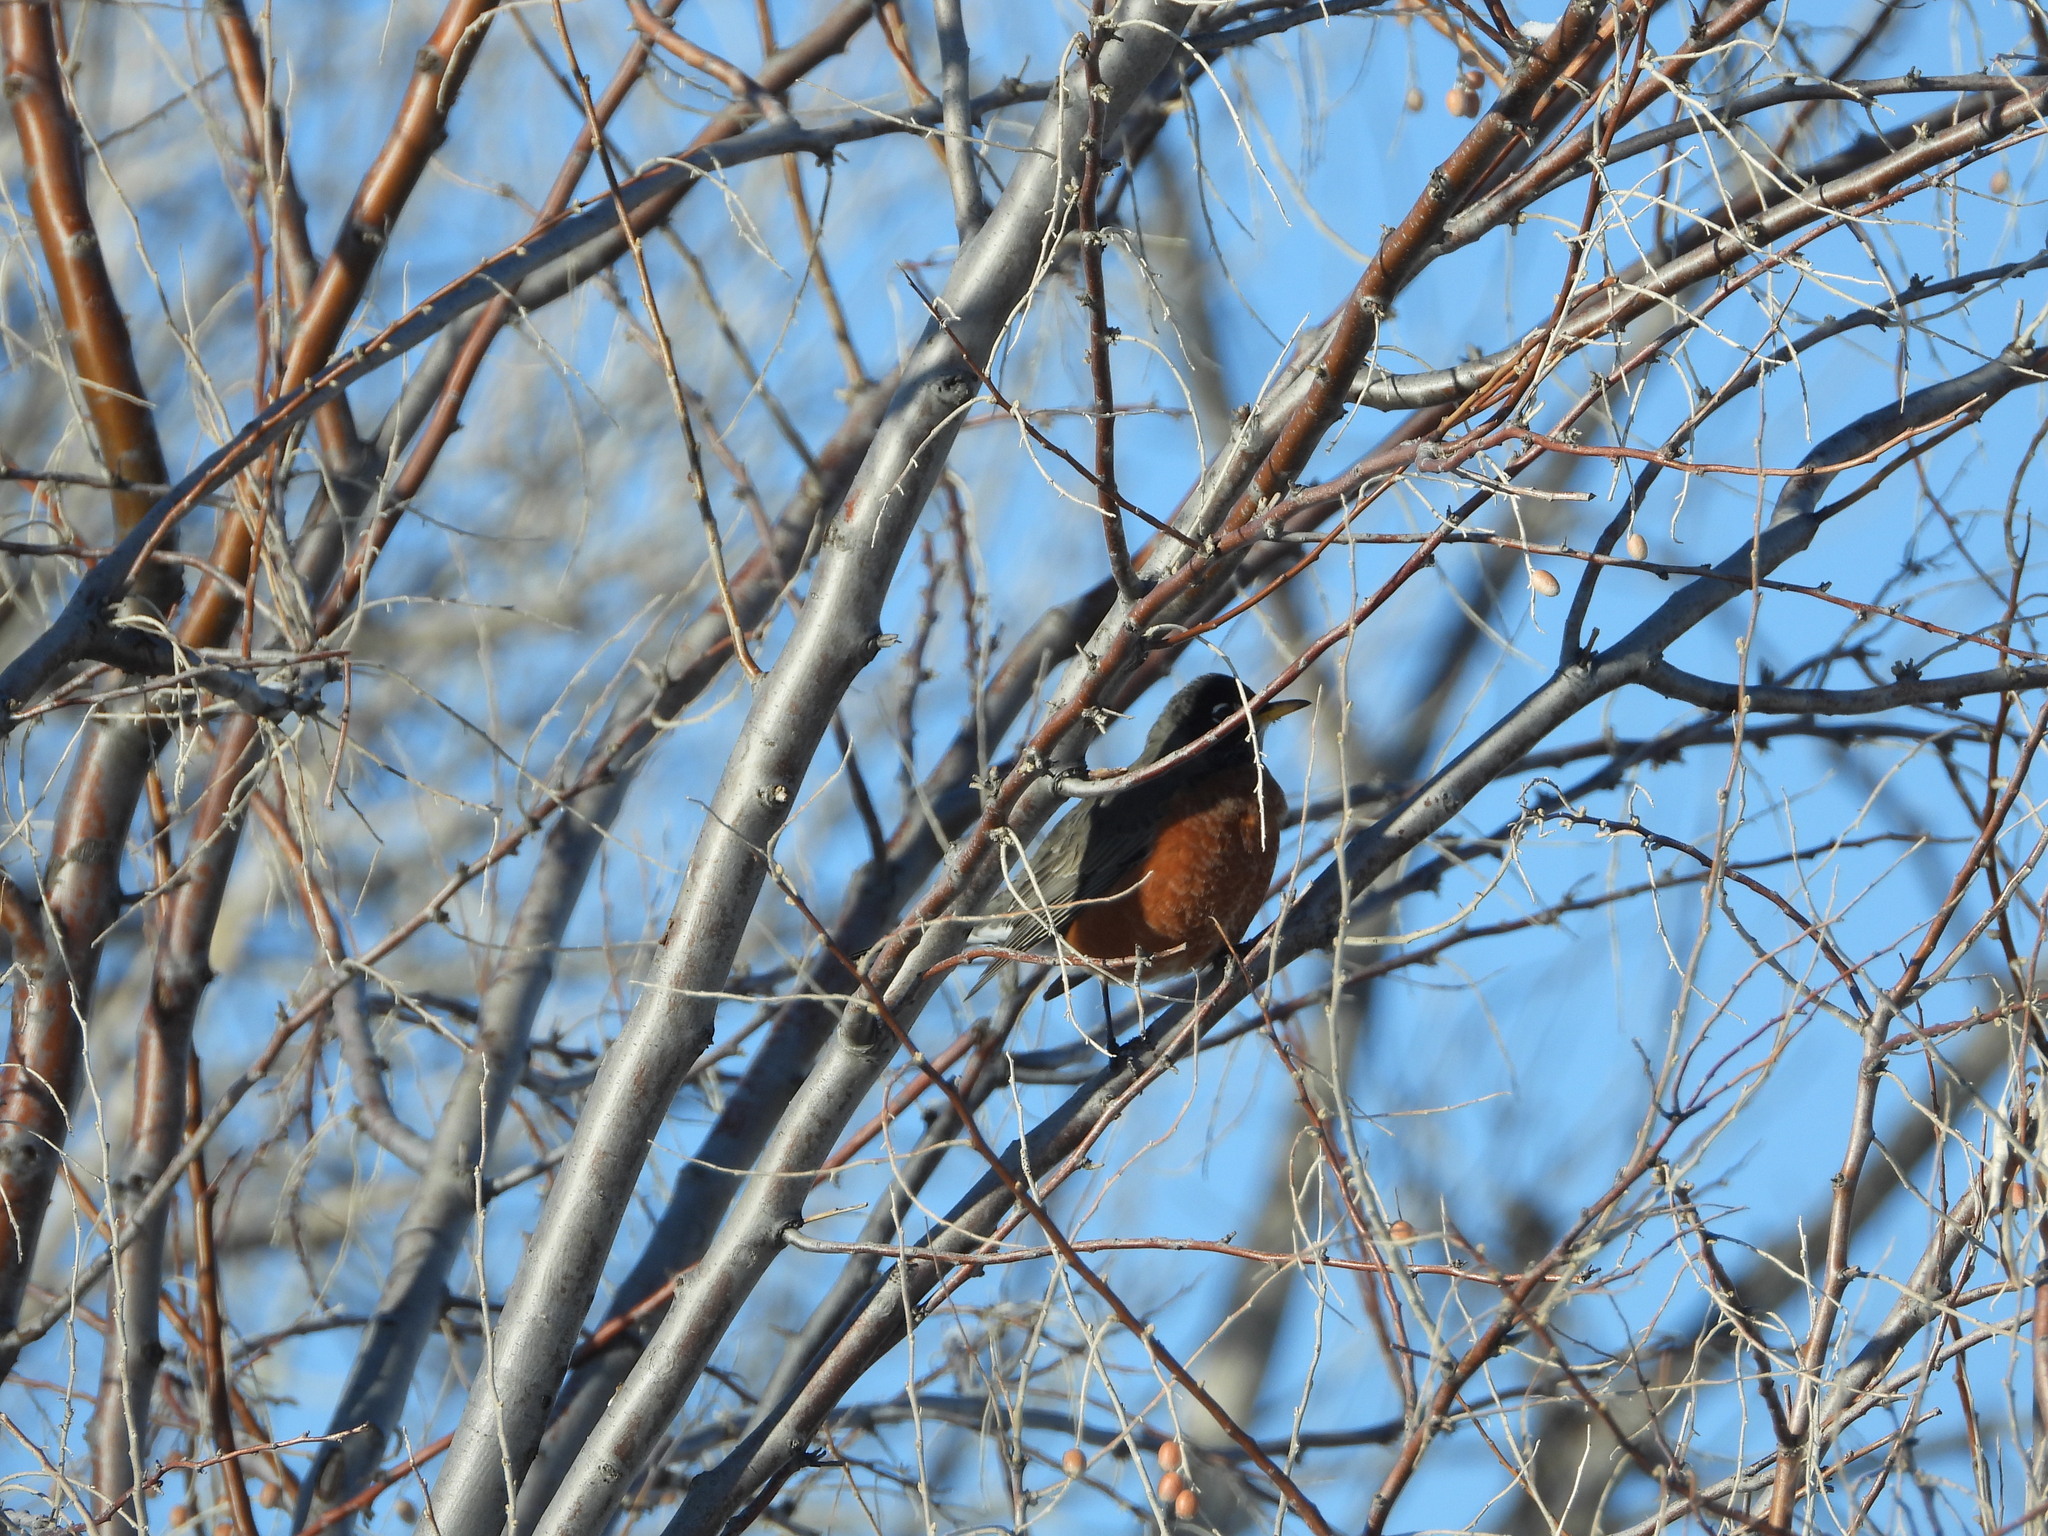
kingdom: Animalia
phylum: Chordata
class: Aves
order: Passeriformes
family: Turdidae
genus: Turdus
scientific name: Turdus migratorius
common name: American robin
